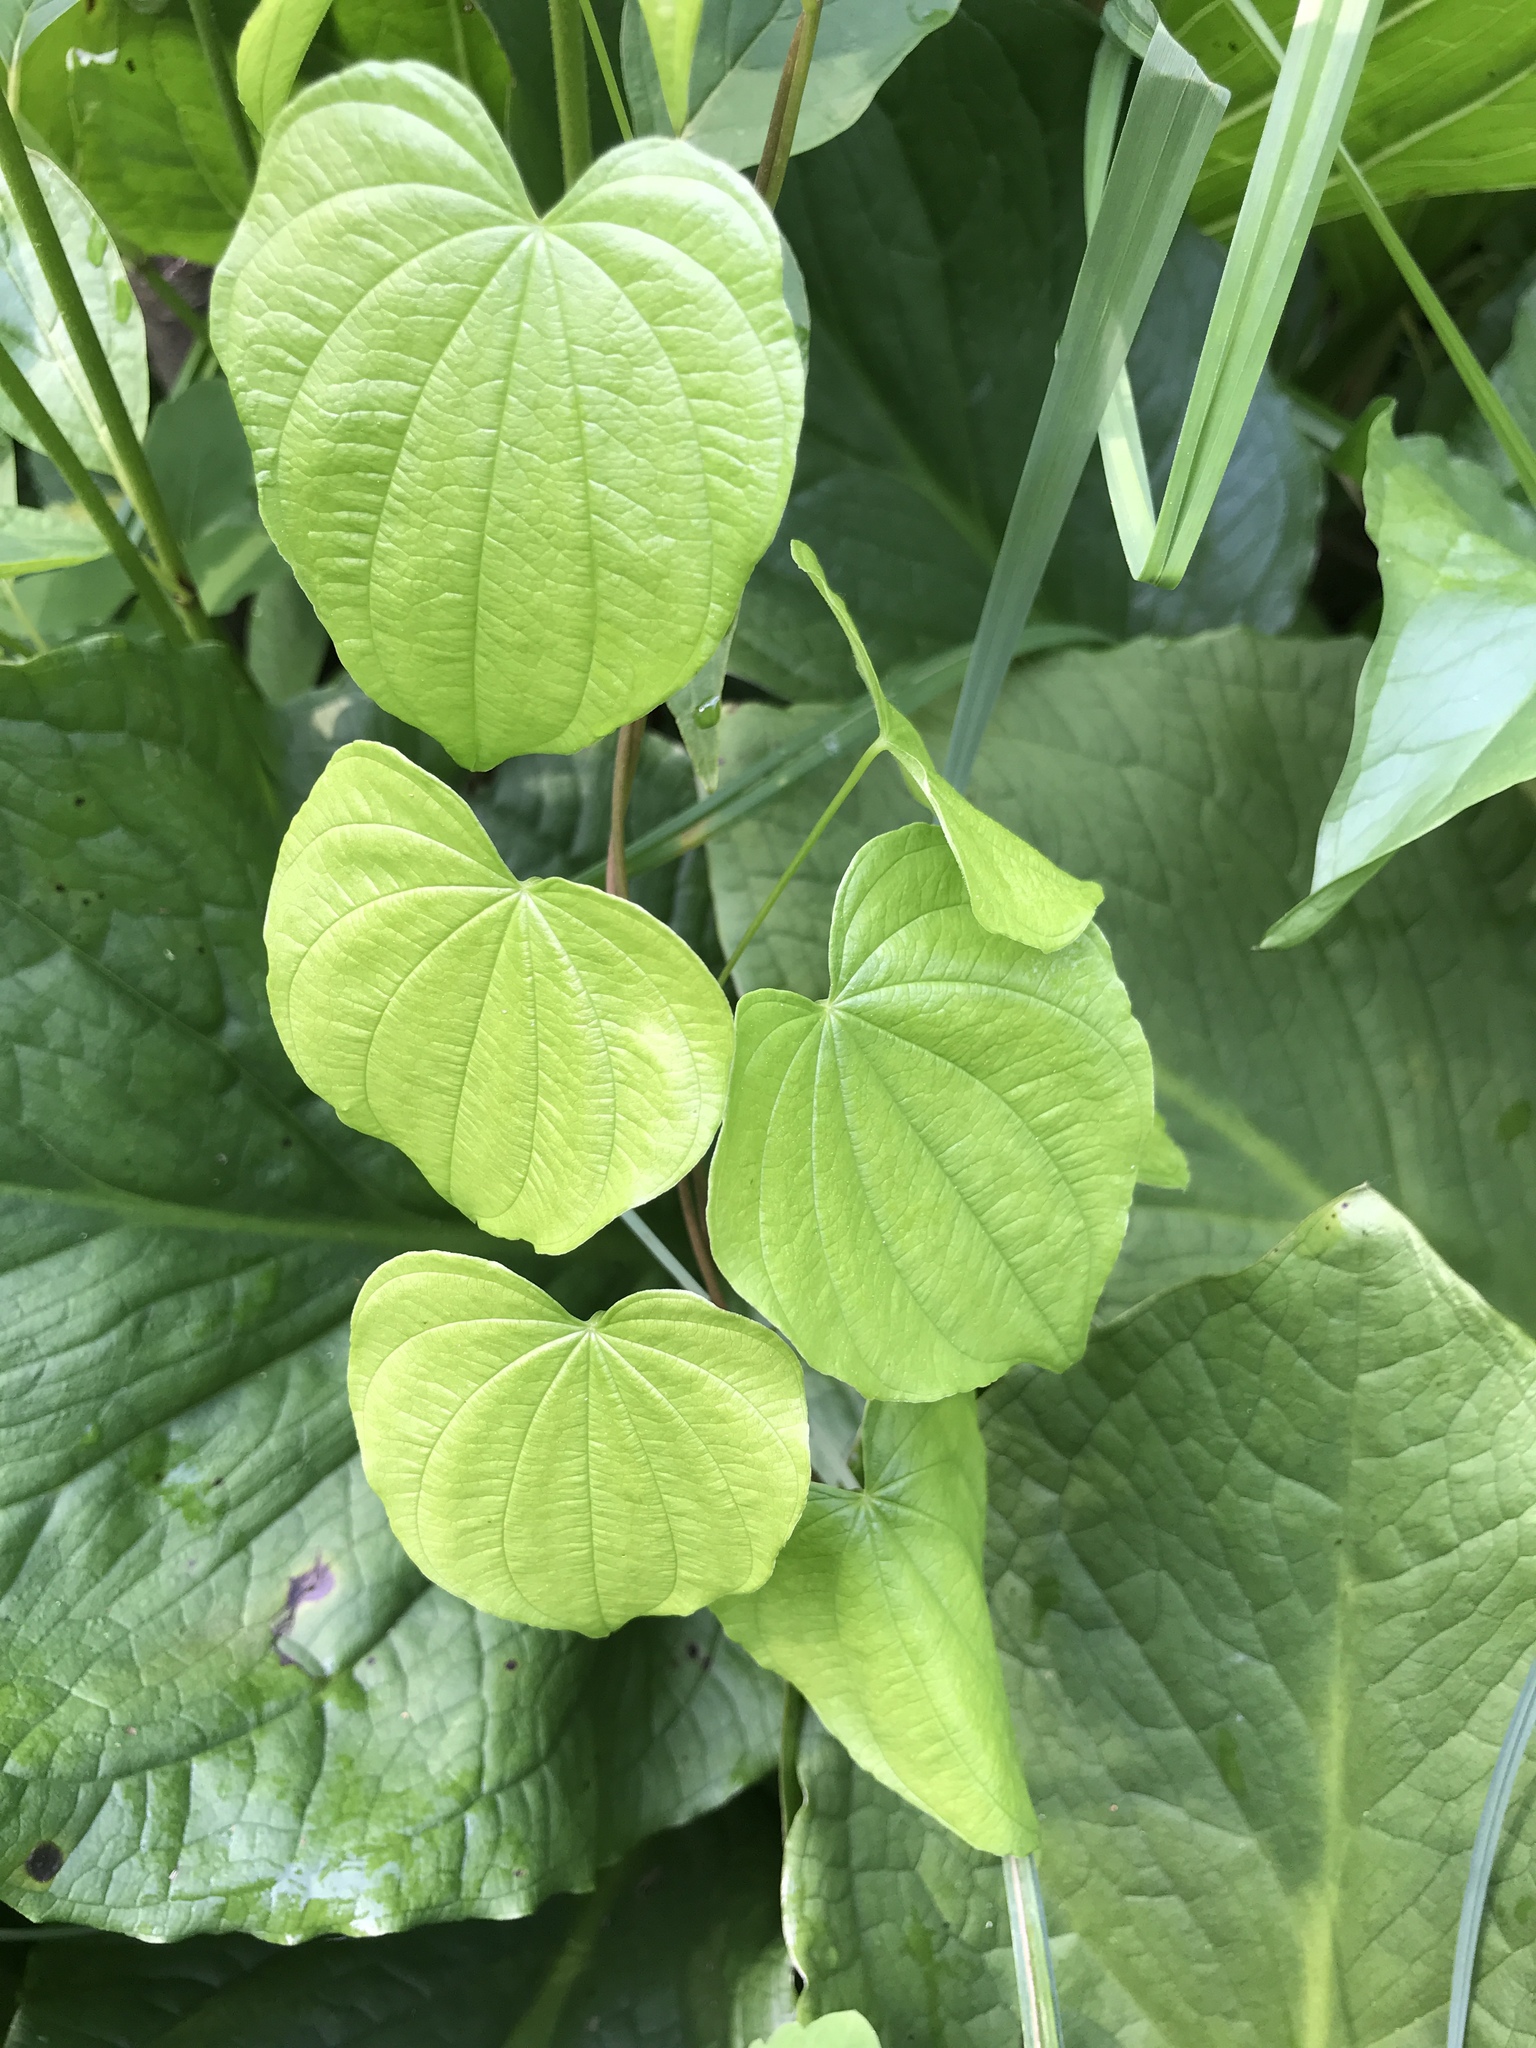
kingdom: Plantae
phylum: Tracheophyta
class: Liliopsida
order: Dioscoreales
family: Dioscoreaceae
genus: Dioscorea
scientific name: Dioscorea villosa
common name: Wild yam
